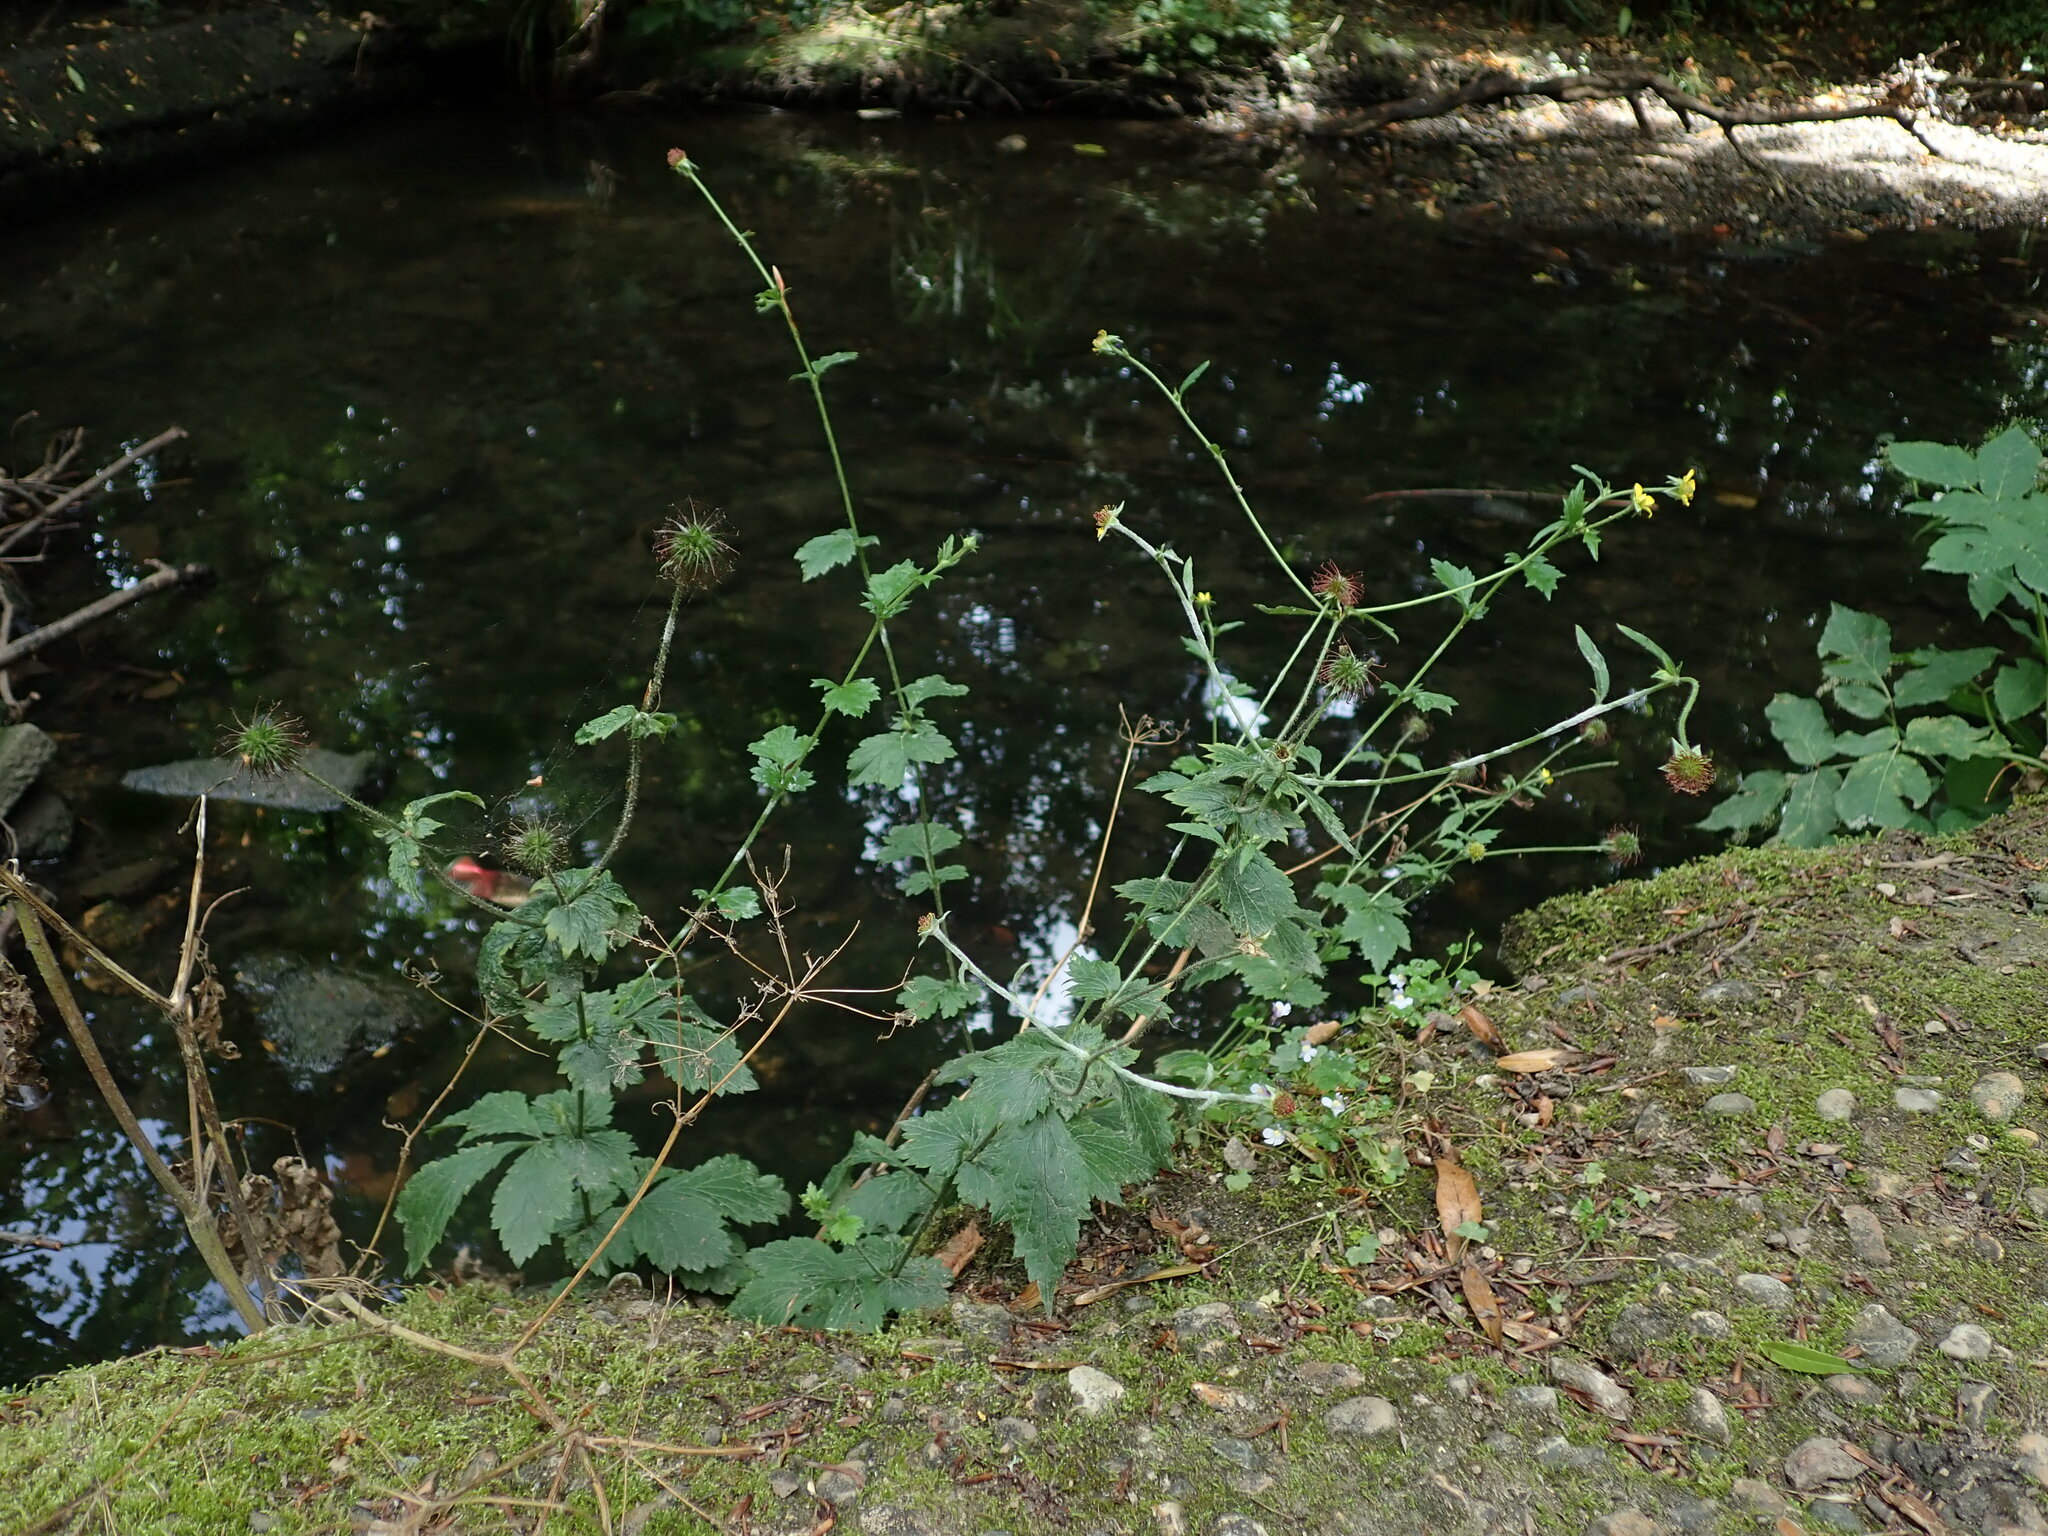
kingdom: Plantae
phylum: Tracheophyta
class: Magnoliopsida
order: Rosales
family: Rosaceae
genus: Geum
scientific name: Geum urbanum
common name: Wood avens
